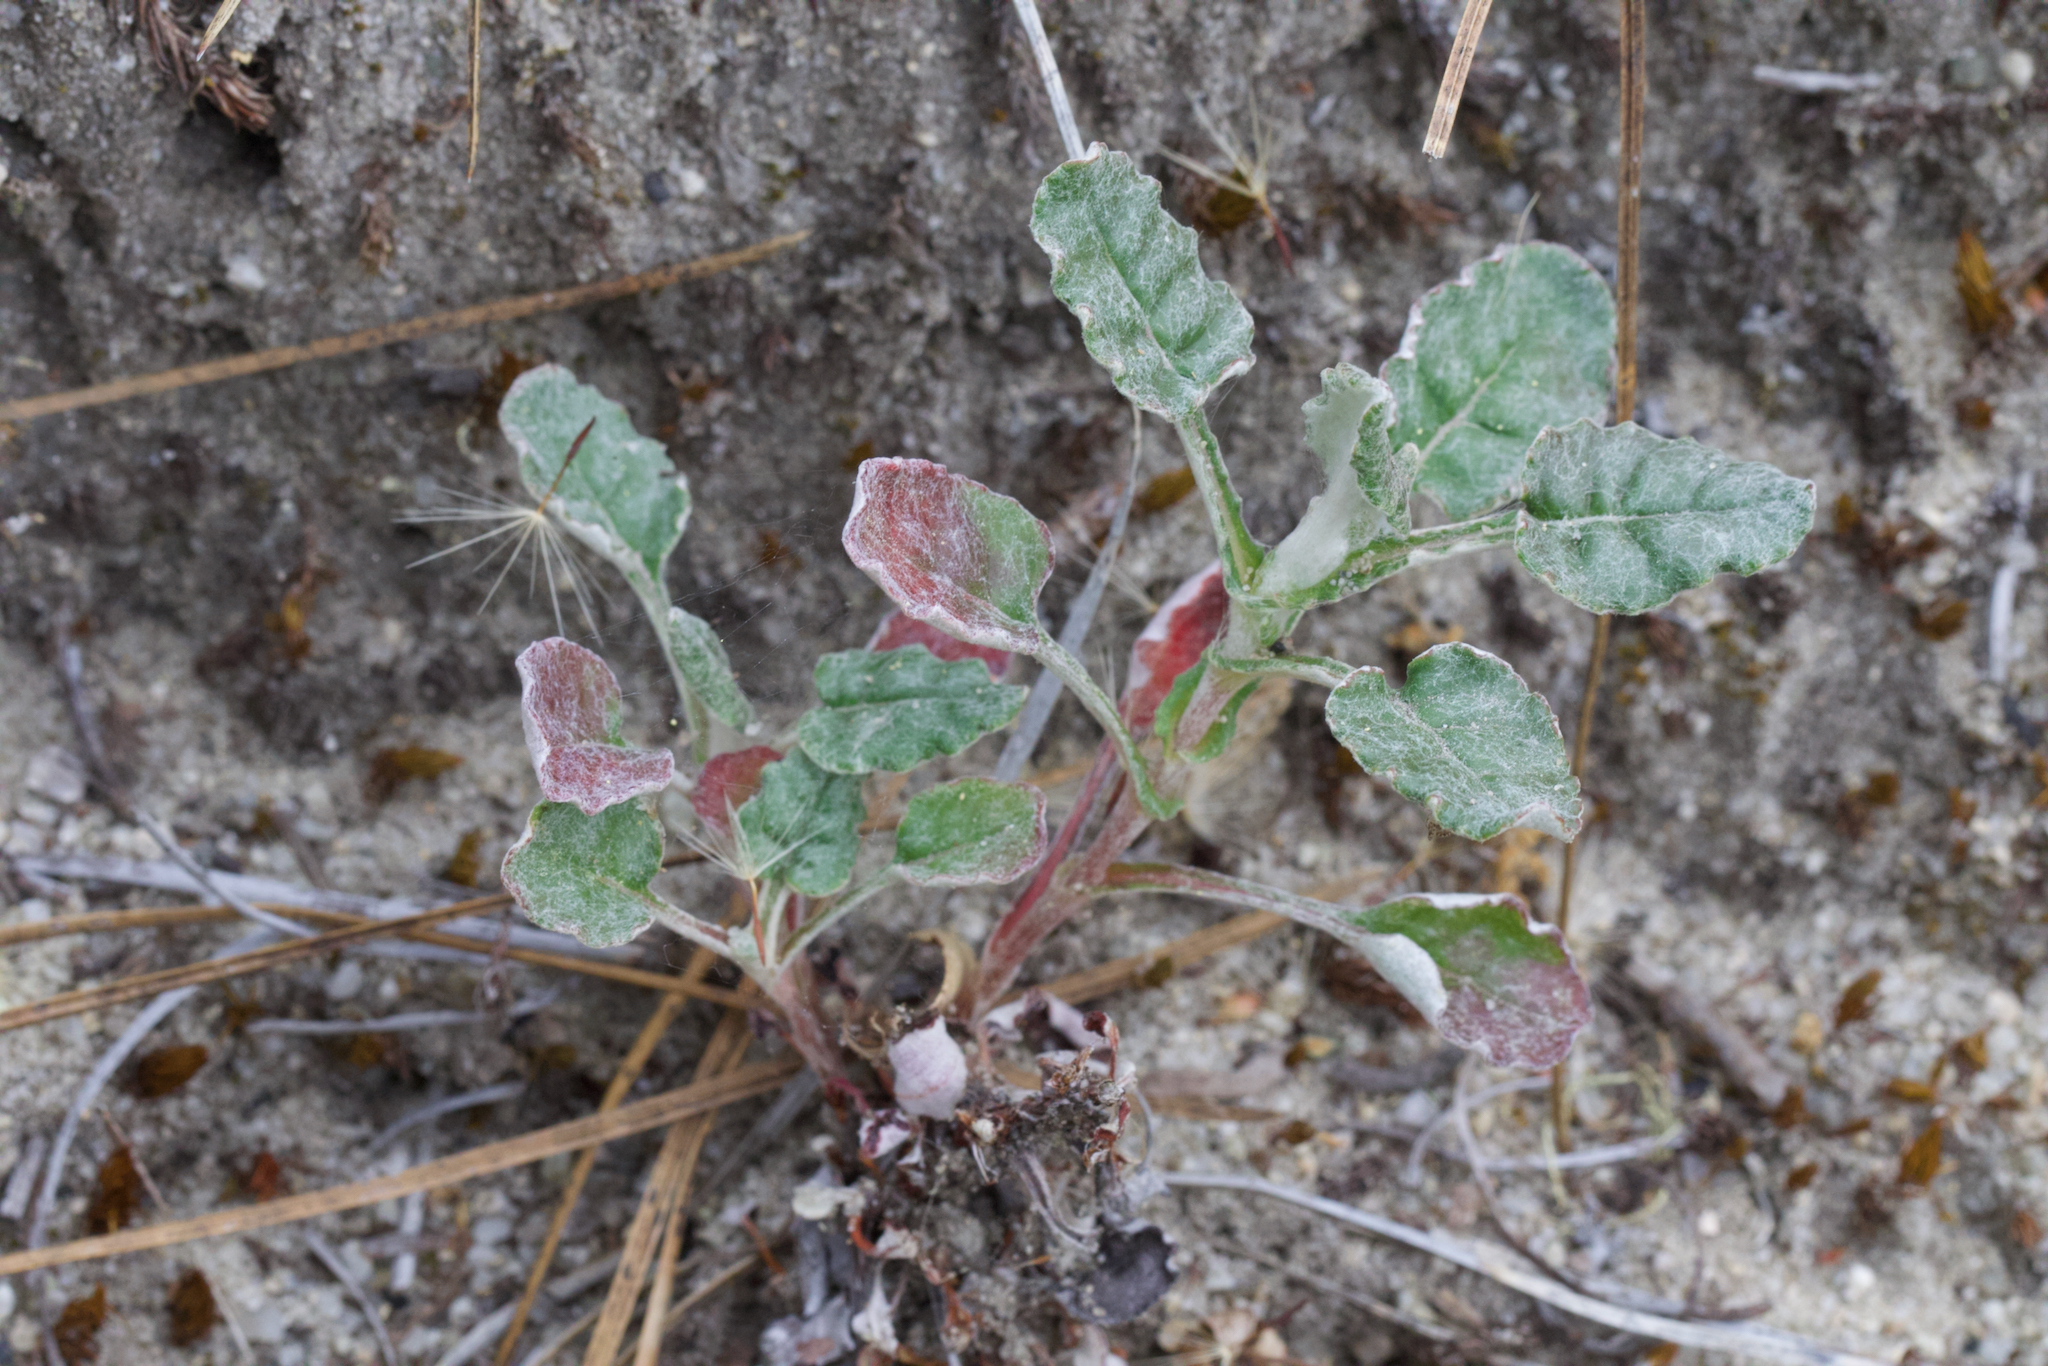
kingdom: Plantae
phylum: Tracheophyta
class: Magnoliopsida
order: Caryophyllales
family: Polygonaceae
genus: Eriogonum
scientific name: Eriogonum nudum
